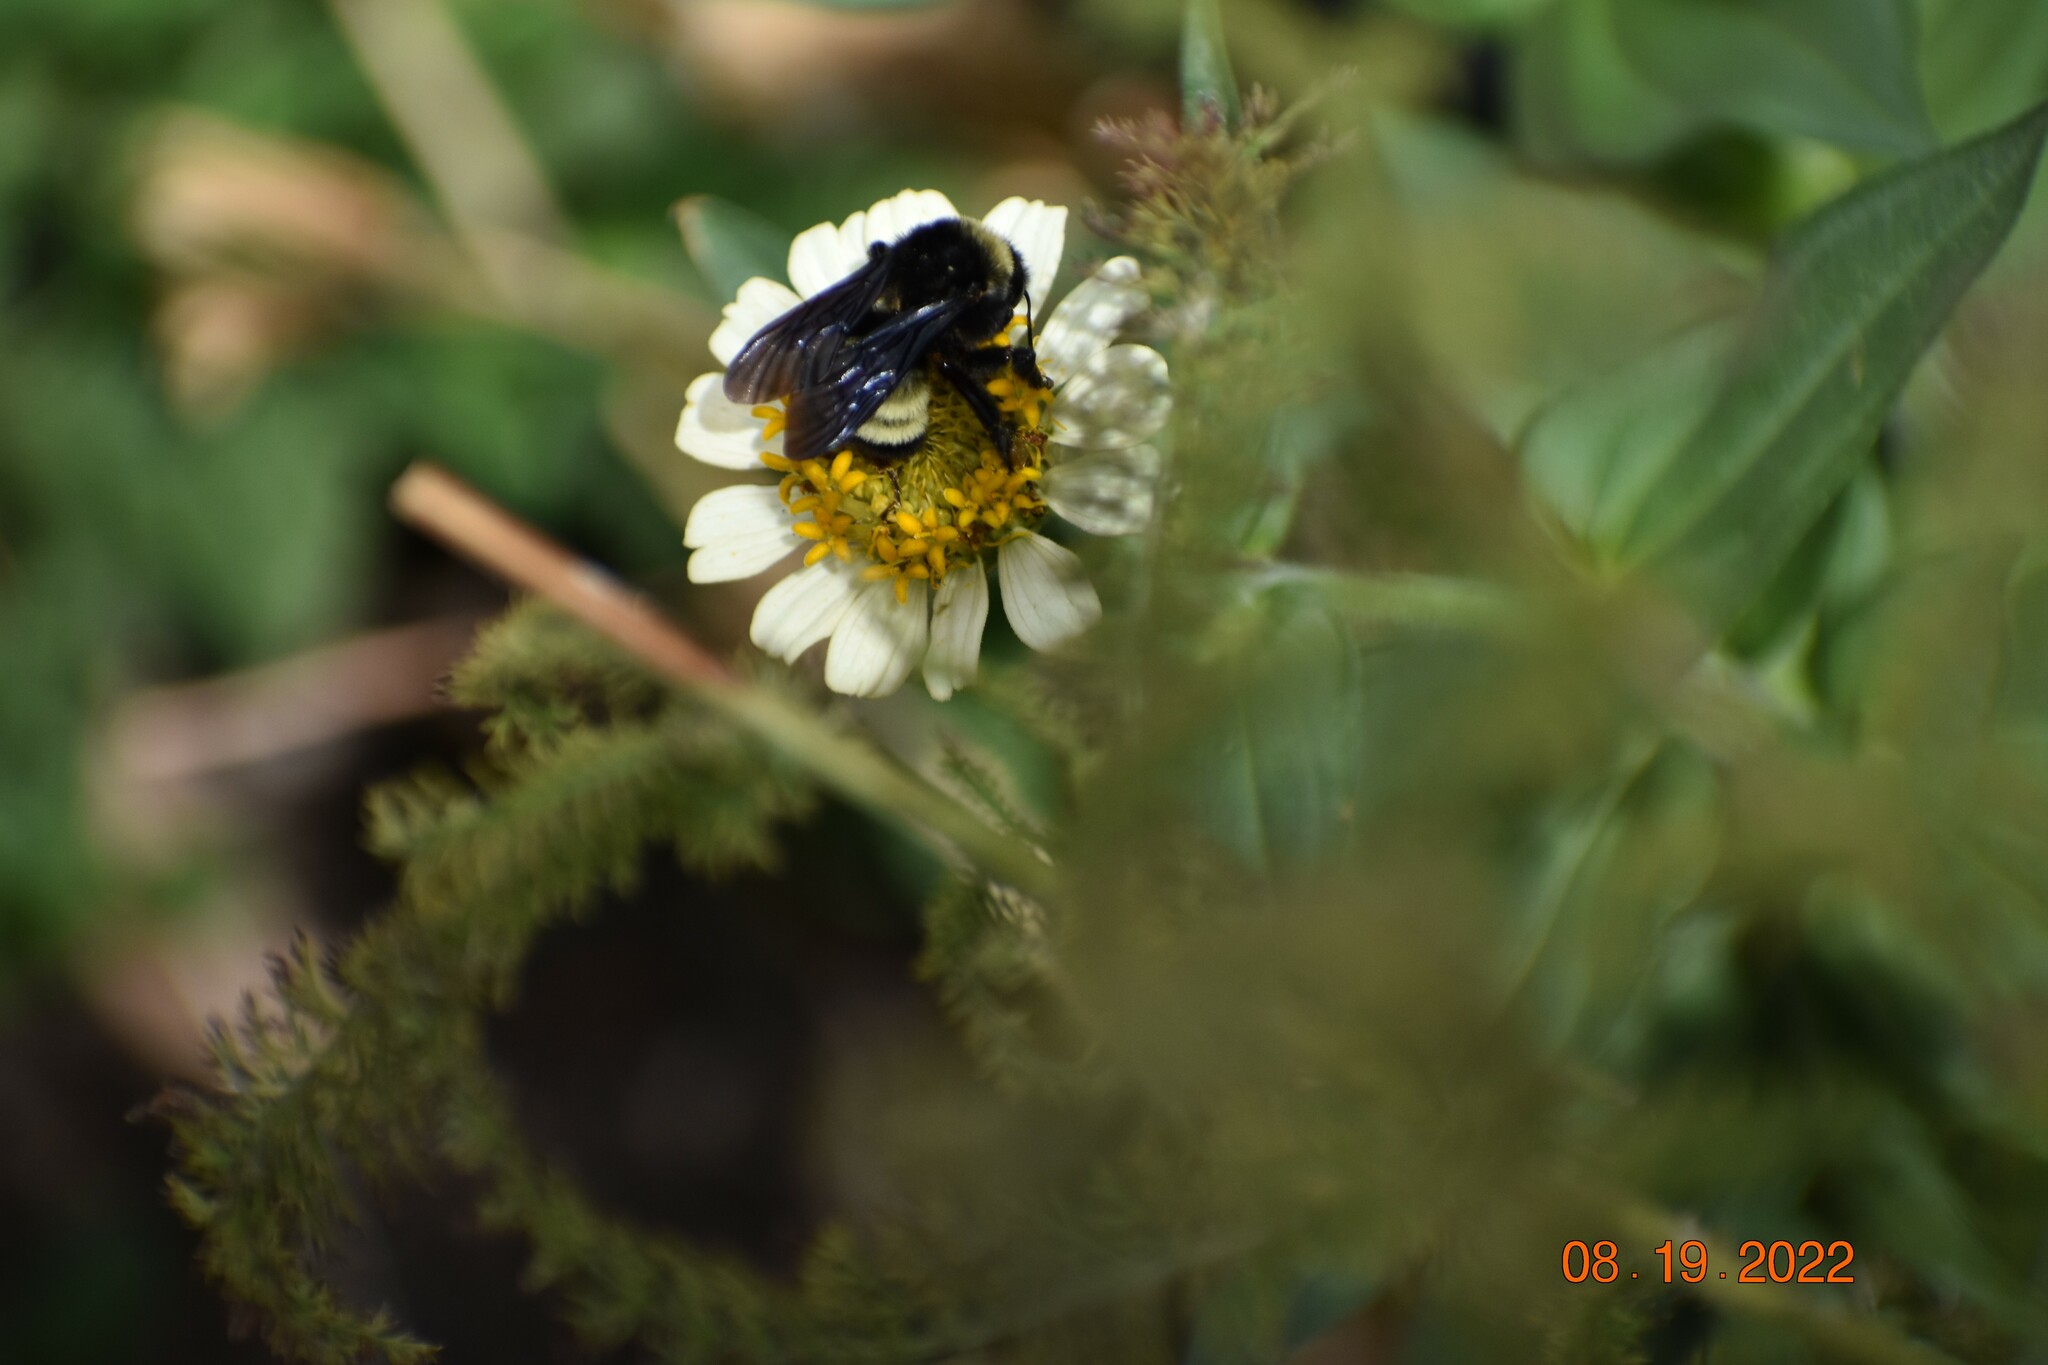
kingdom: Animalia
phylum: Arthropoda
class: Insecta
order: Hymenoptera
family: Apidae
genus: Bombus
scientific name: Bombus pensylvanicus
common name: Bumble bee
